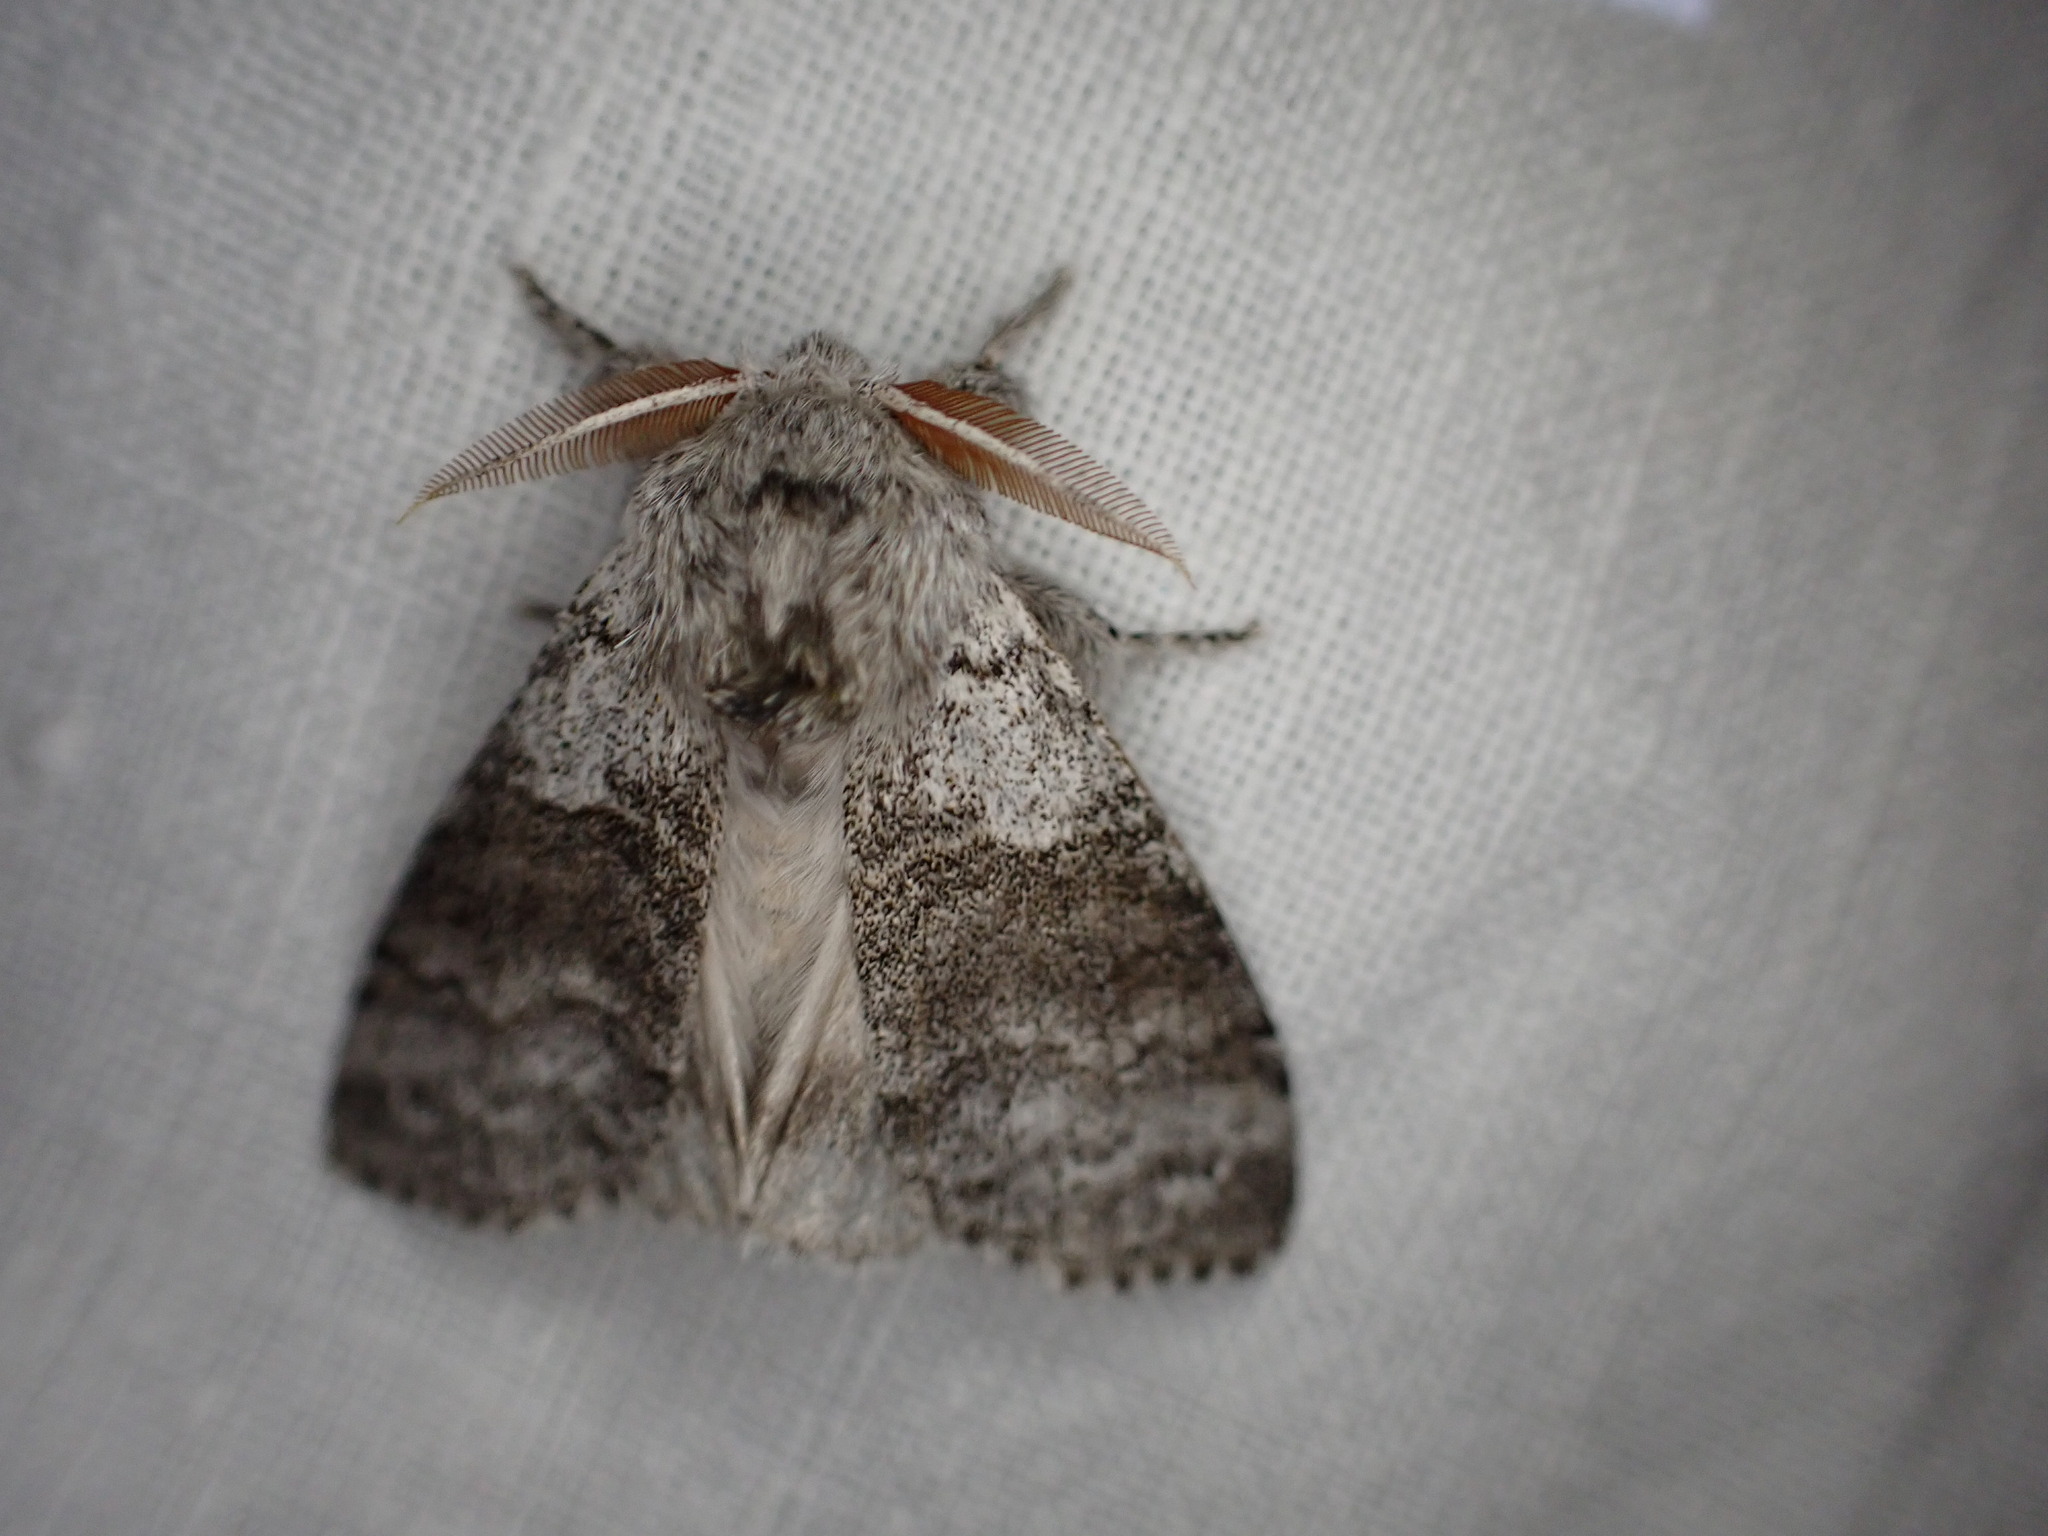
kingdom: Animalia
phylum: Arthropoda
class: Insecta
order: Lepidoptera
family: Erebidae
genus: Calliteara
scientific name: Calliteara pudibunda
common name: Pale tussock
